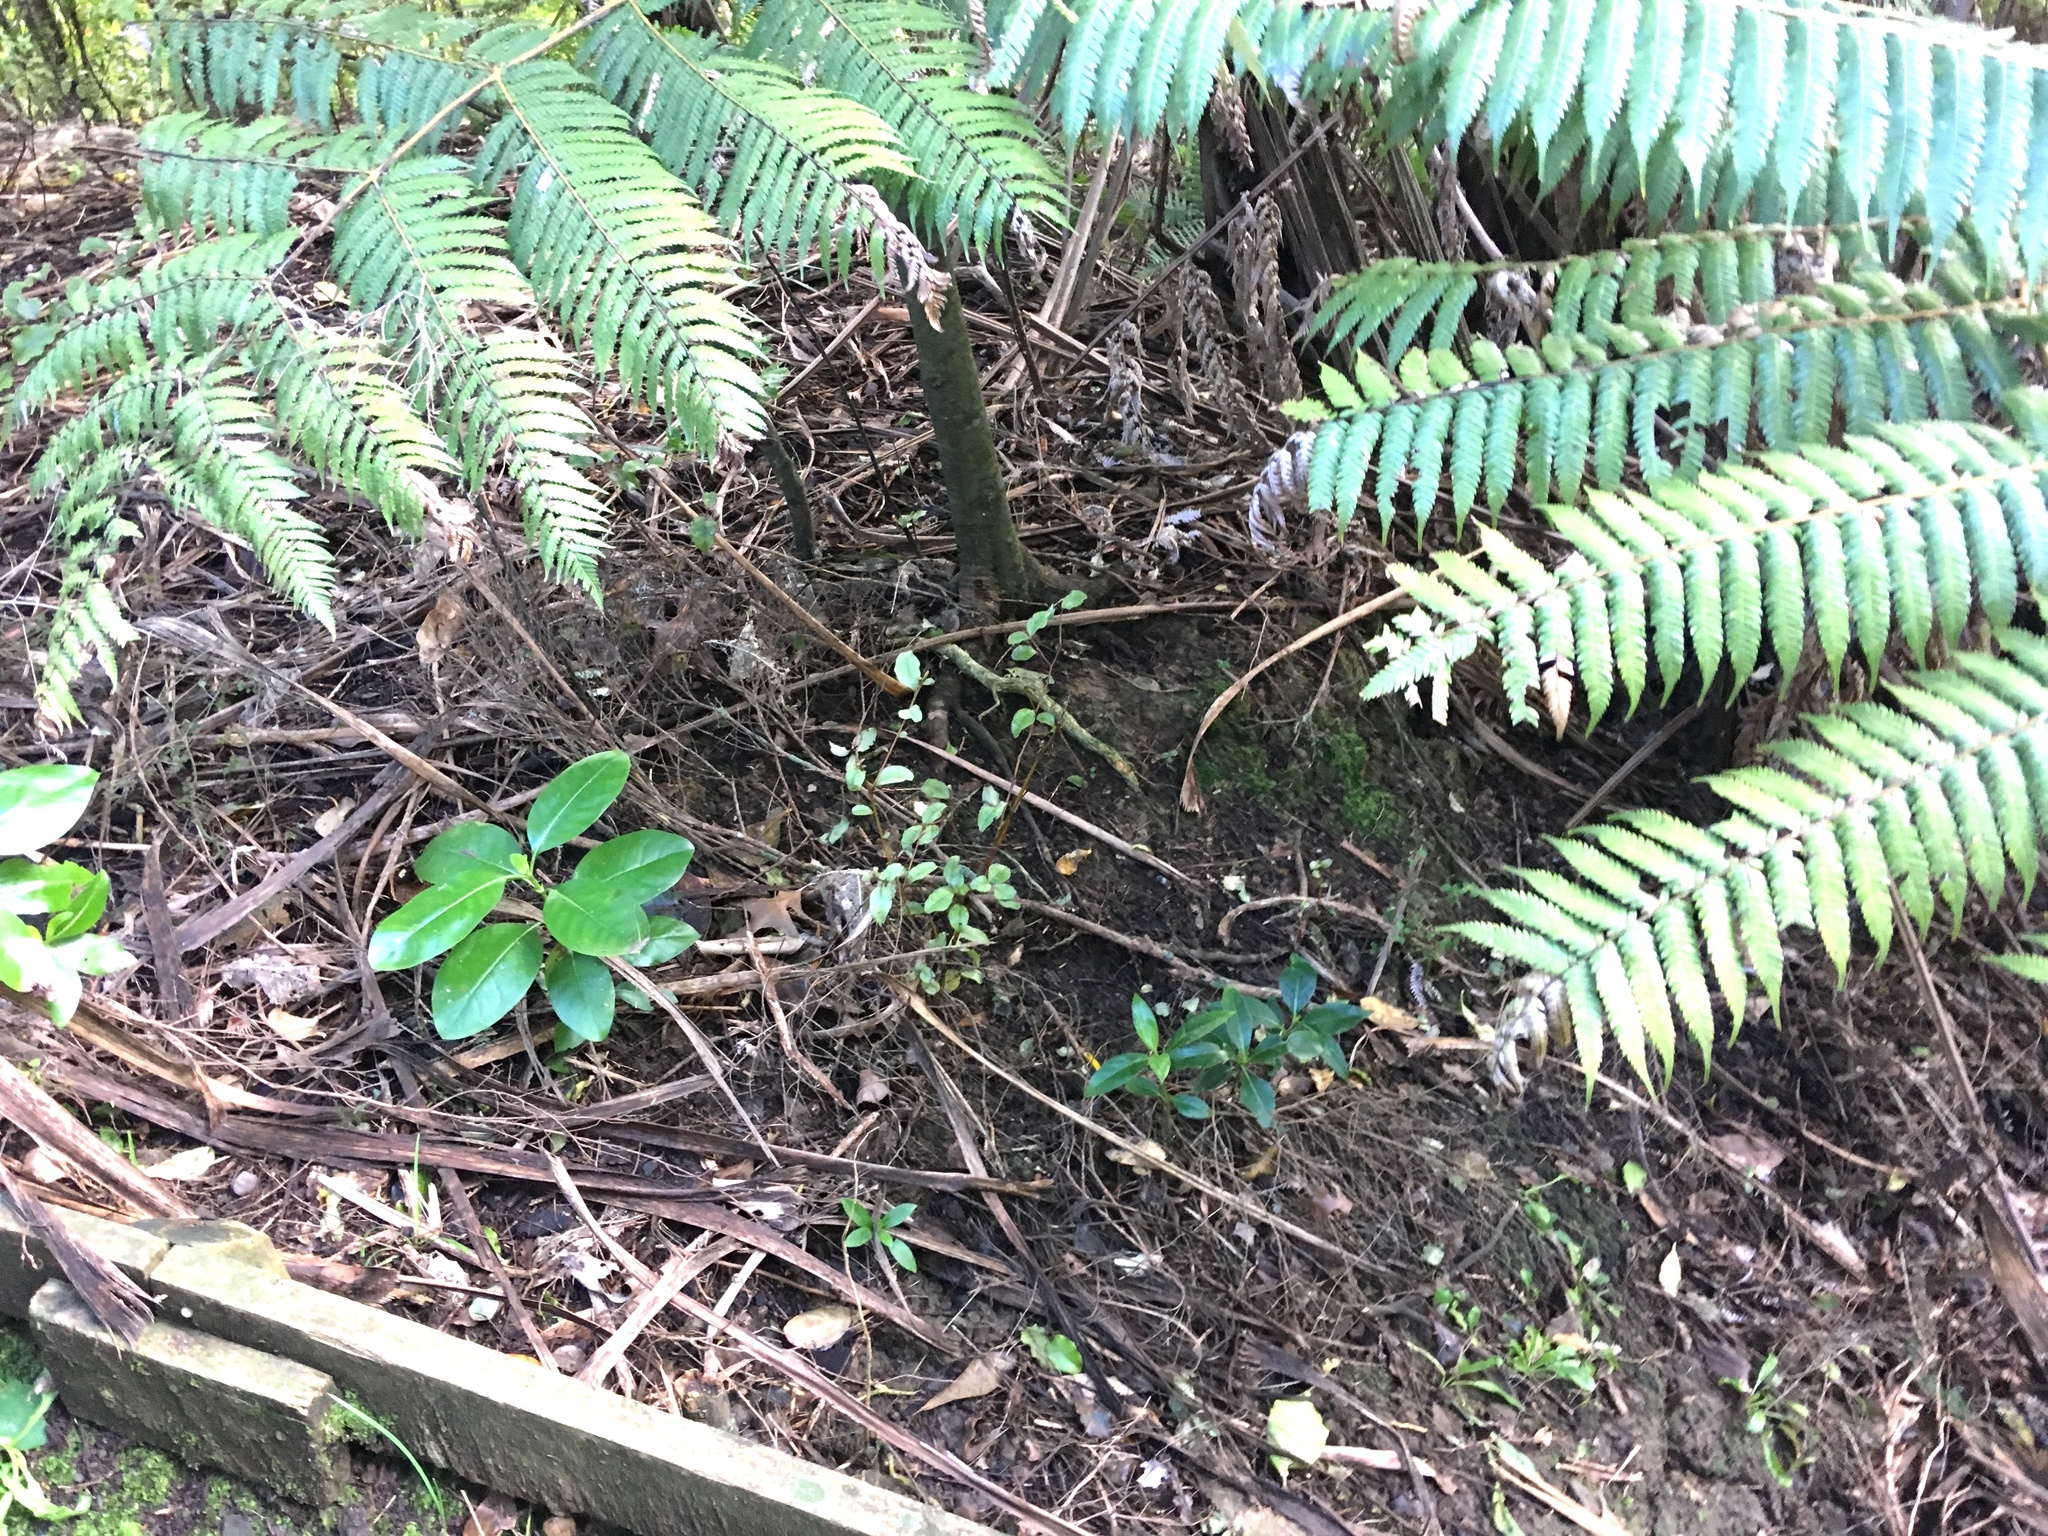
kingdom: Plantae
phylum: Tracheophyta
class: Polypodiopsida
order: Cyatheales
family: Cyatheaceae
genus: Alsophila
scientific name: Alsophila dealbata
